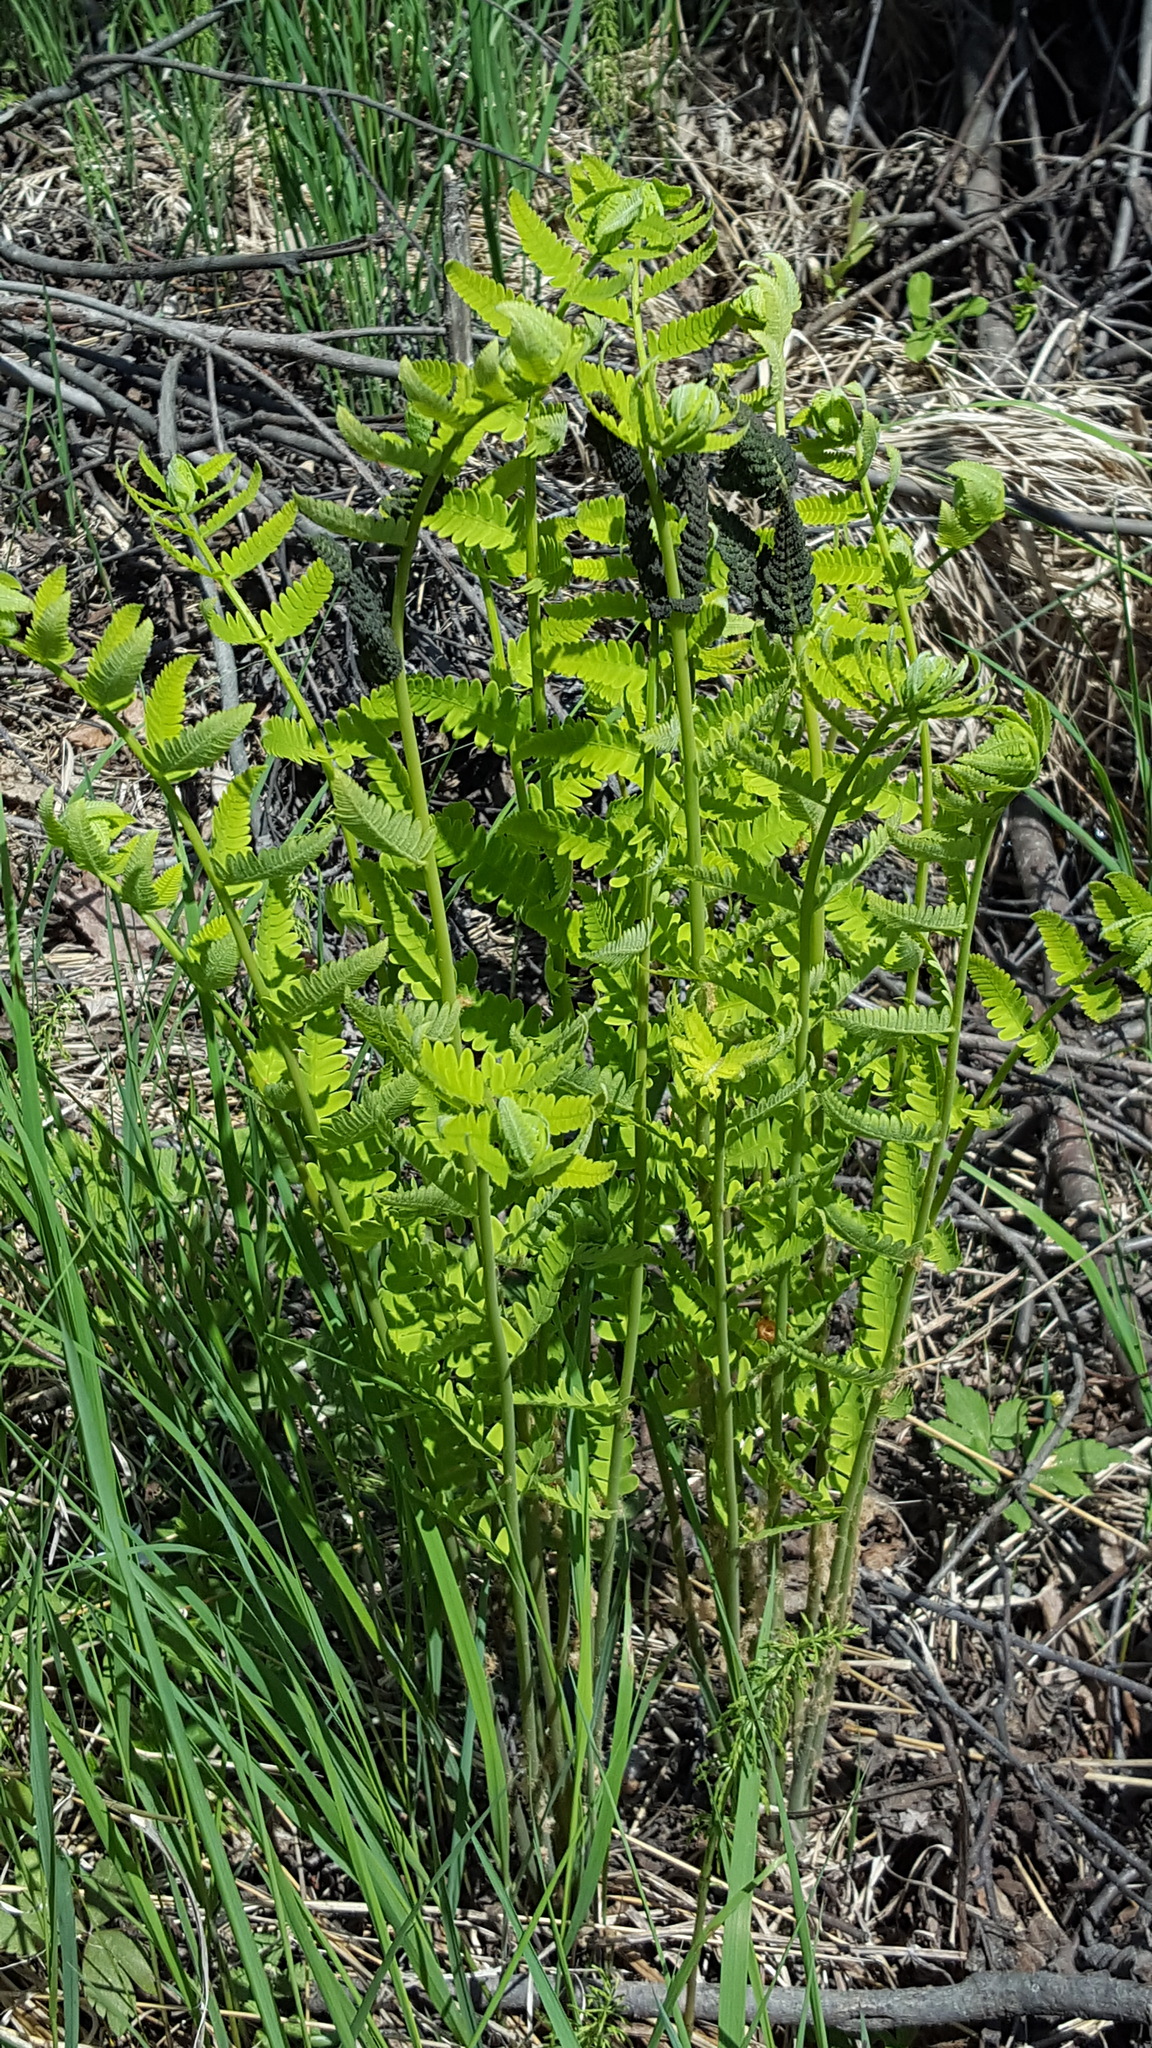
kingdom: Plantae
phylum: Tracheophyta
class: Polypodiopsida
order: Osmundales
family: Osmundaceae
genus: Claytosmunda
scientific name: Claytosmunda claytoniana
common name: Clayton's fern
